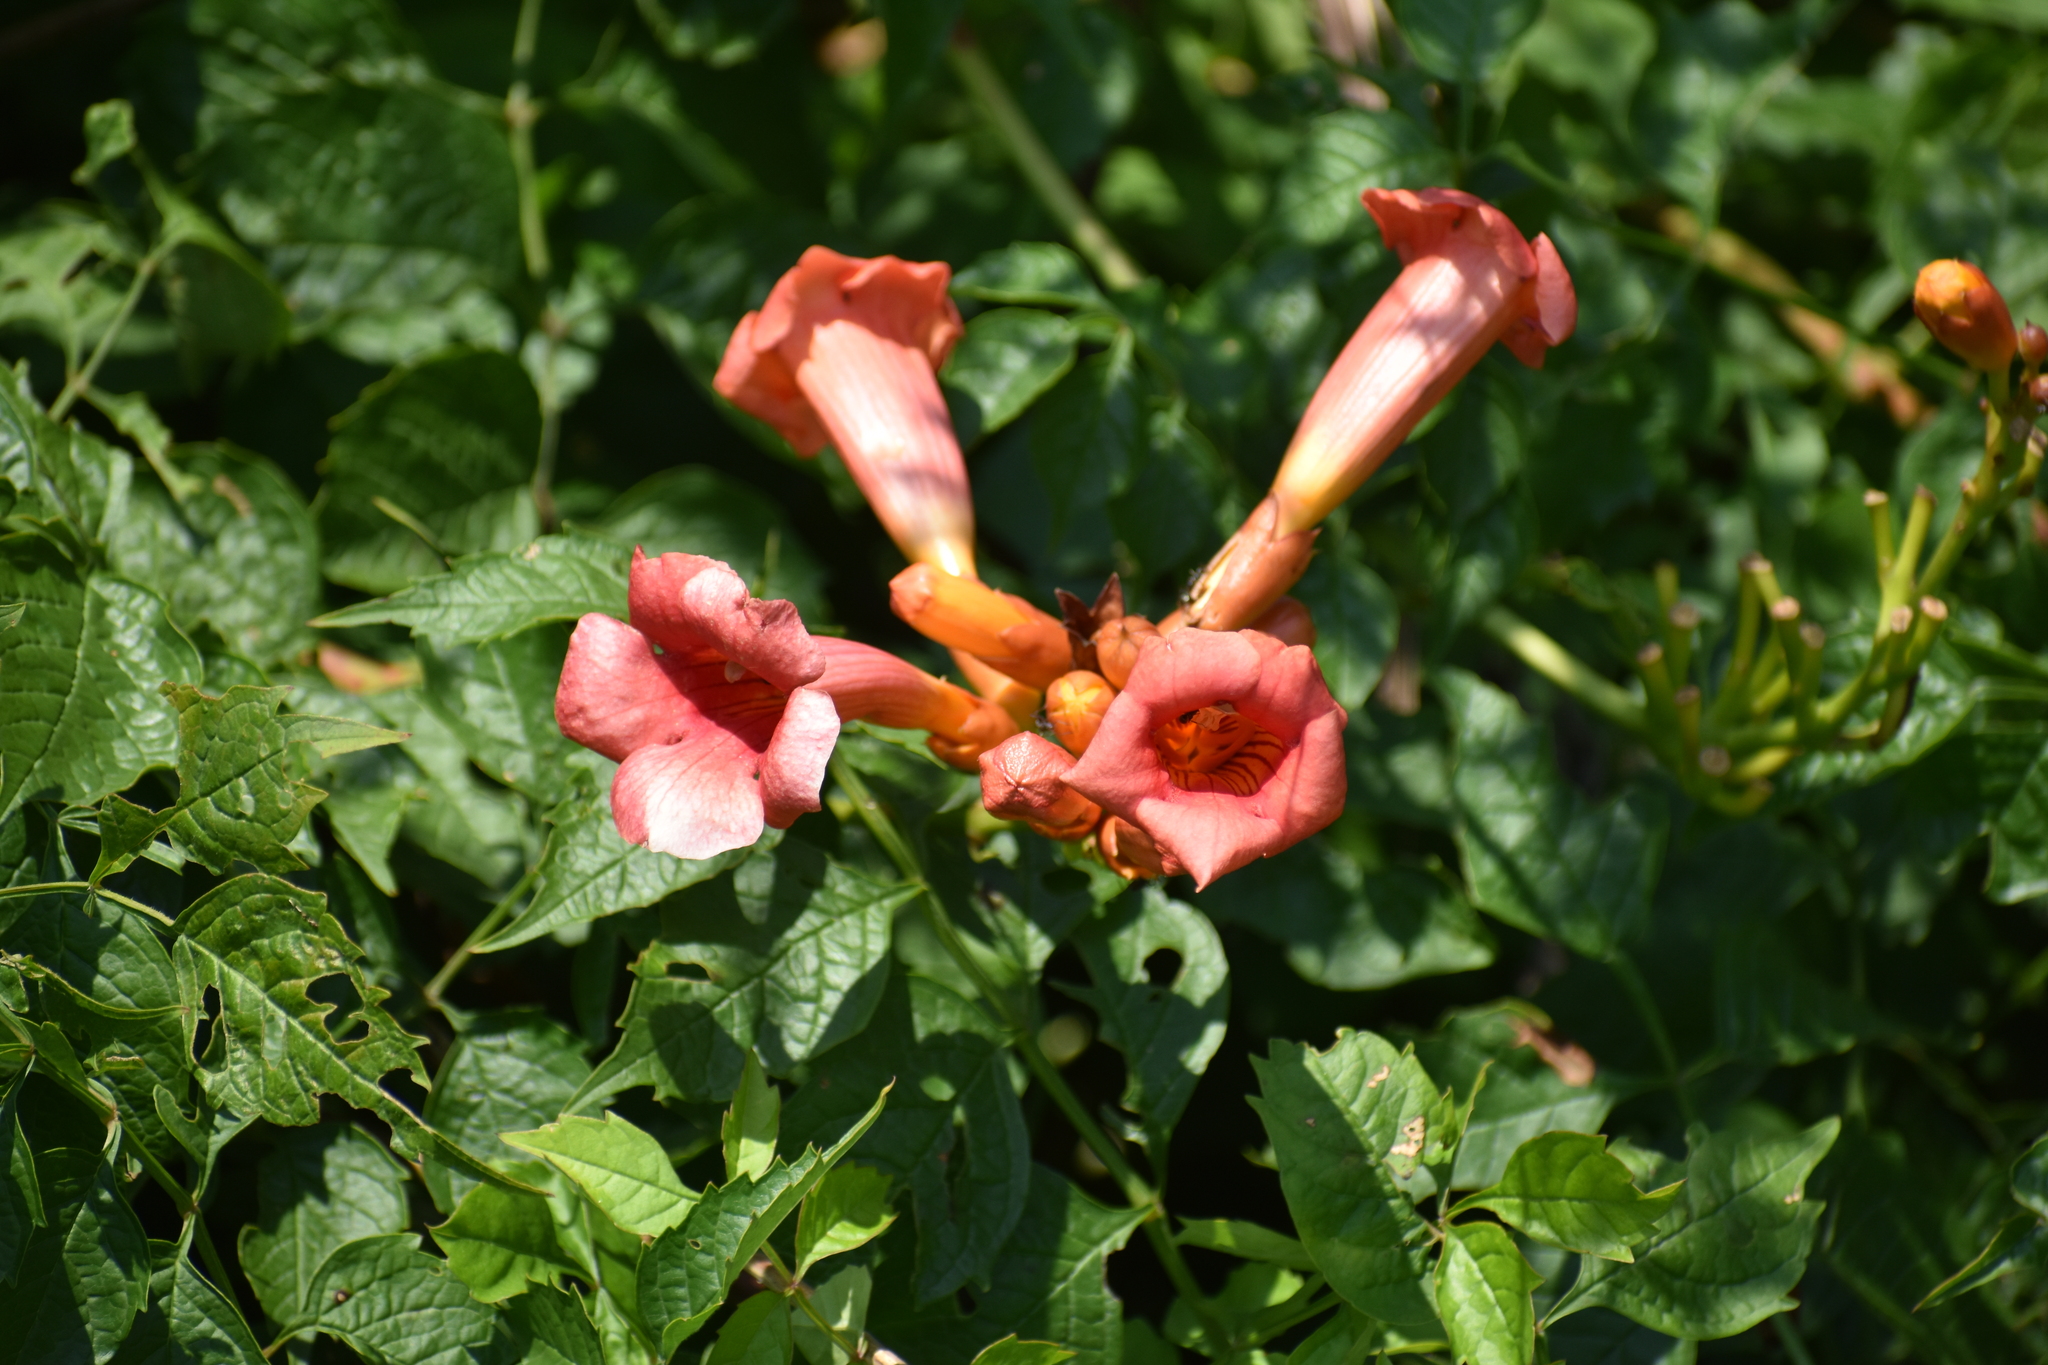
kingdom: Plantae
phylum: Tracheophyta
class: Magnoliopsida
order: Lamiales
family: Bignoniaceae
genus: Campsis
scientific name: Campsis radicans
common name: Trumpet-creeper
